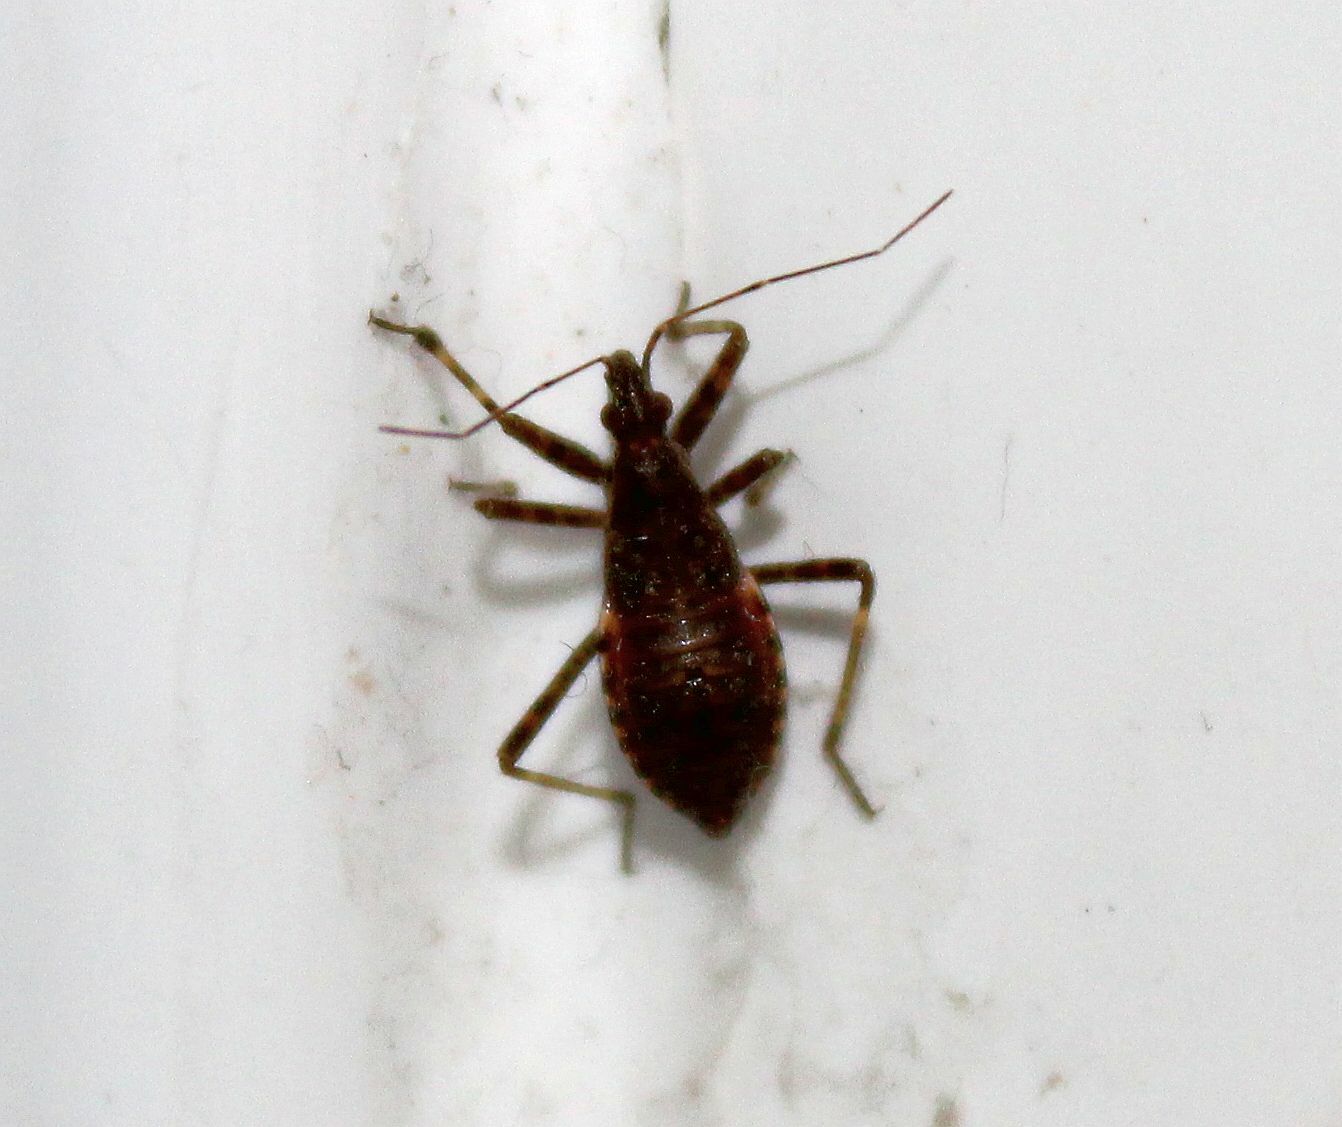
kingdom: Animalia
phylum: Arthropoda
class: Insecta
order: Hemiptera
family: Nabidae
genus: Himacerus
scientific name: Himacerus apterus
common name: Tree damsel bug
